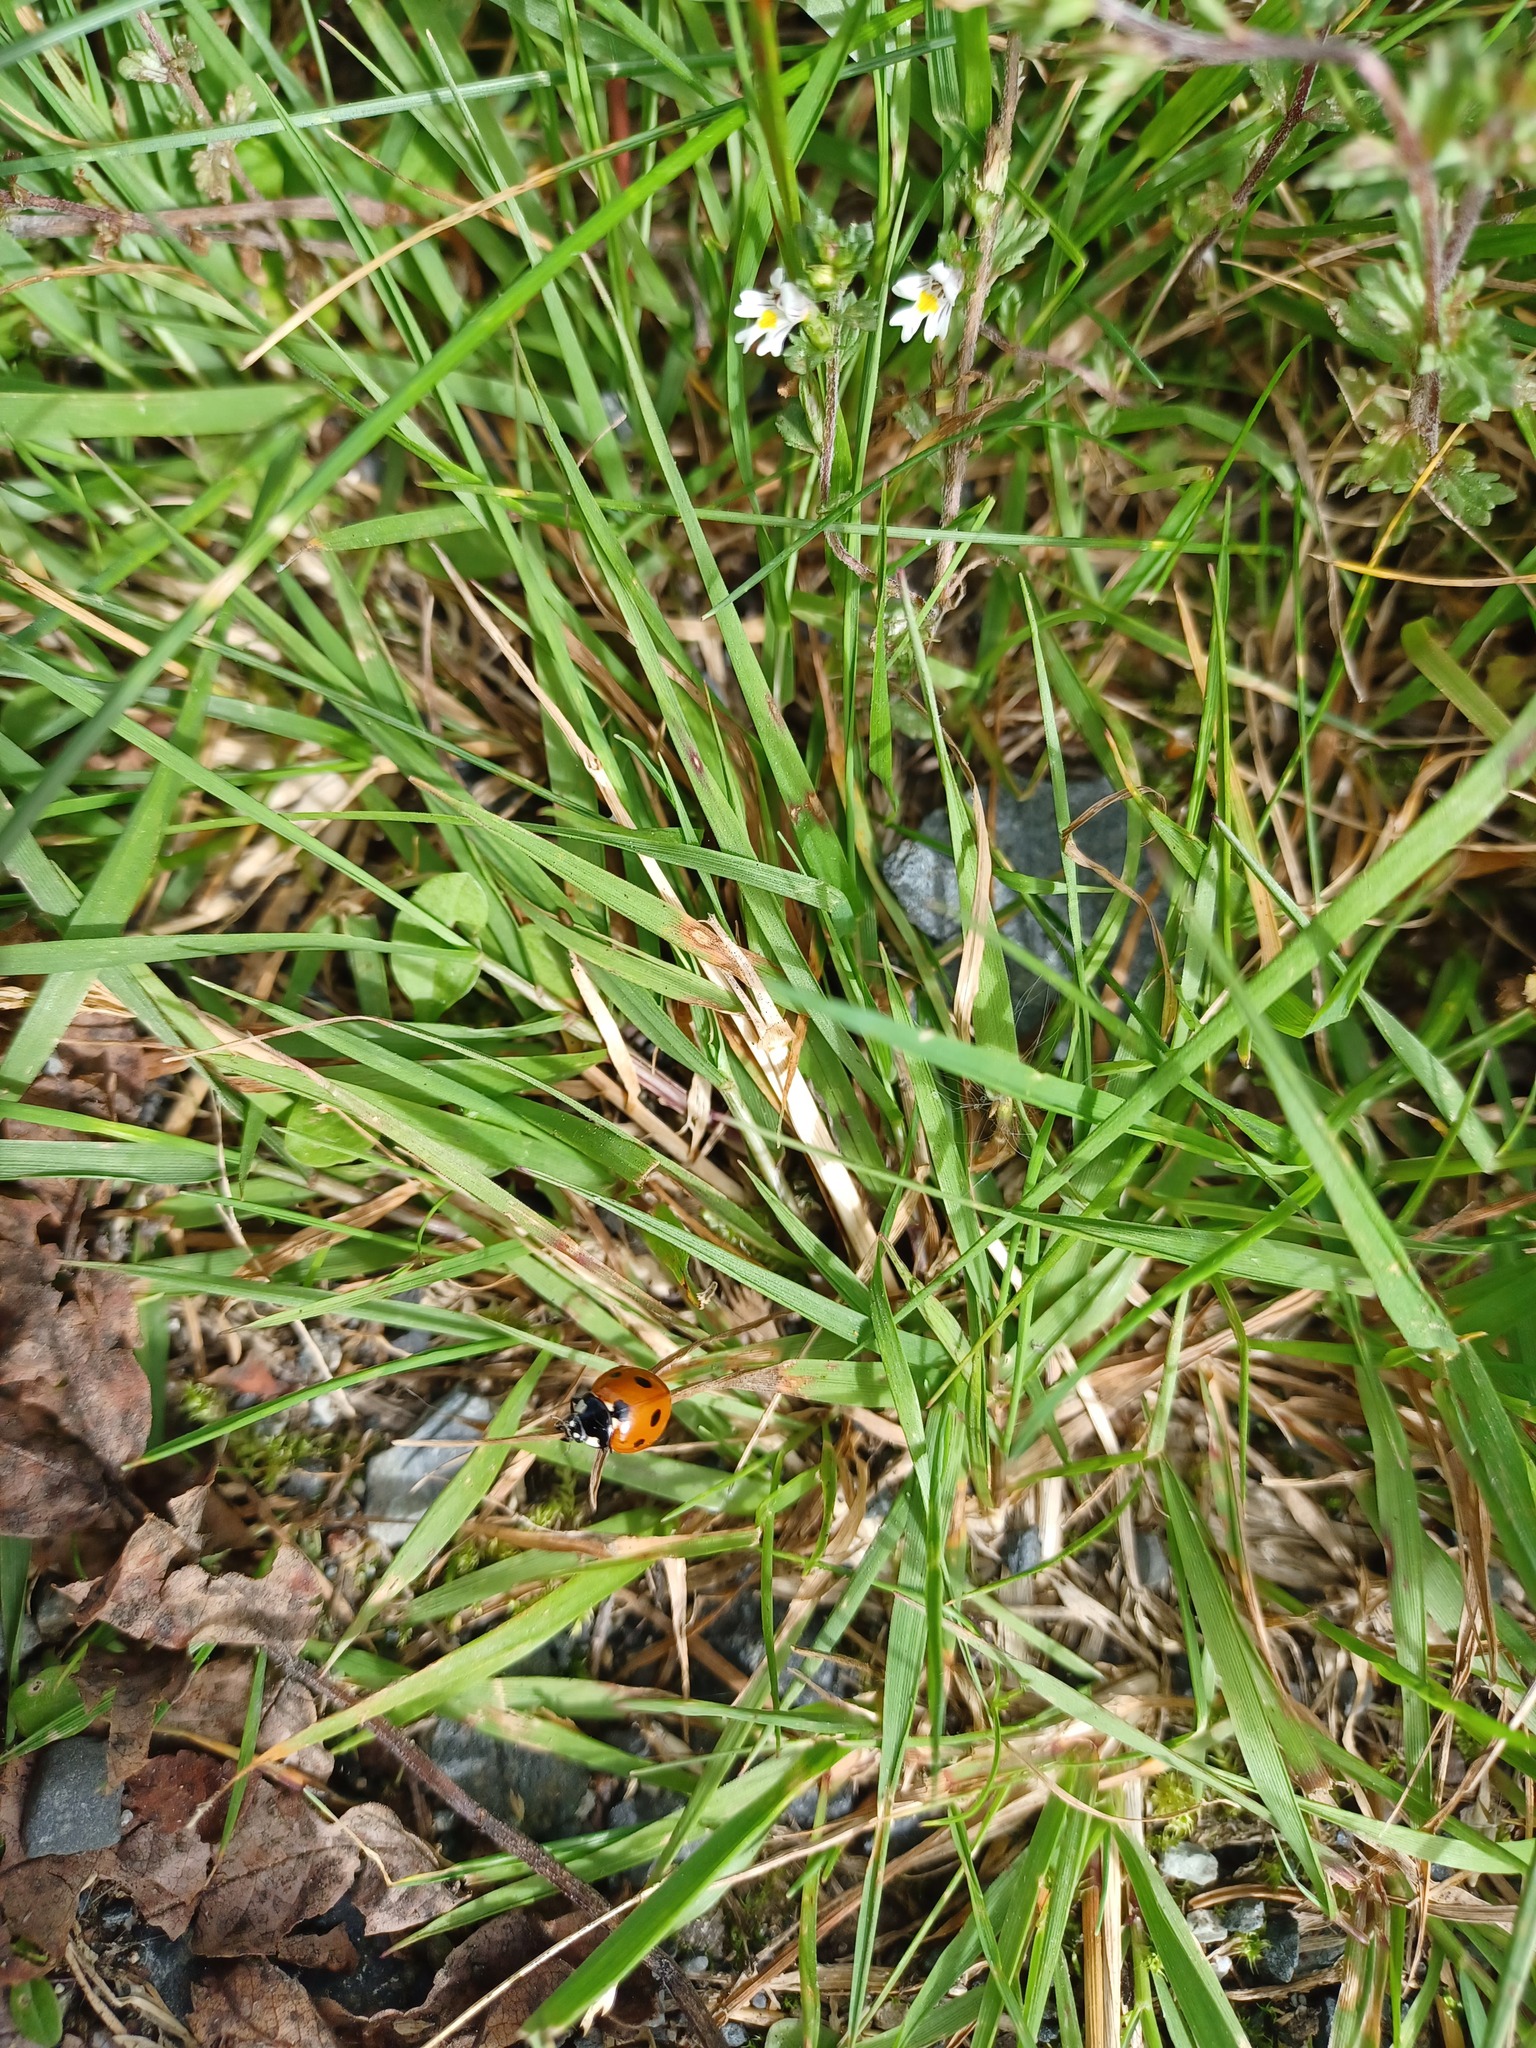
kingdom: Animalia
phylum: Arthropoda
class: Insecta
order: Coleoptera
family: Coccinellidae
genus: Coccinella
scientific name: Coccinella septempunctata
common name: Sevenspotted lady beetle
